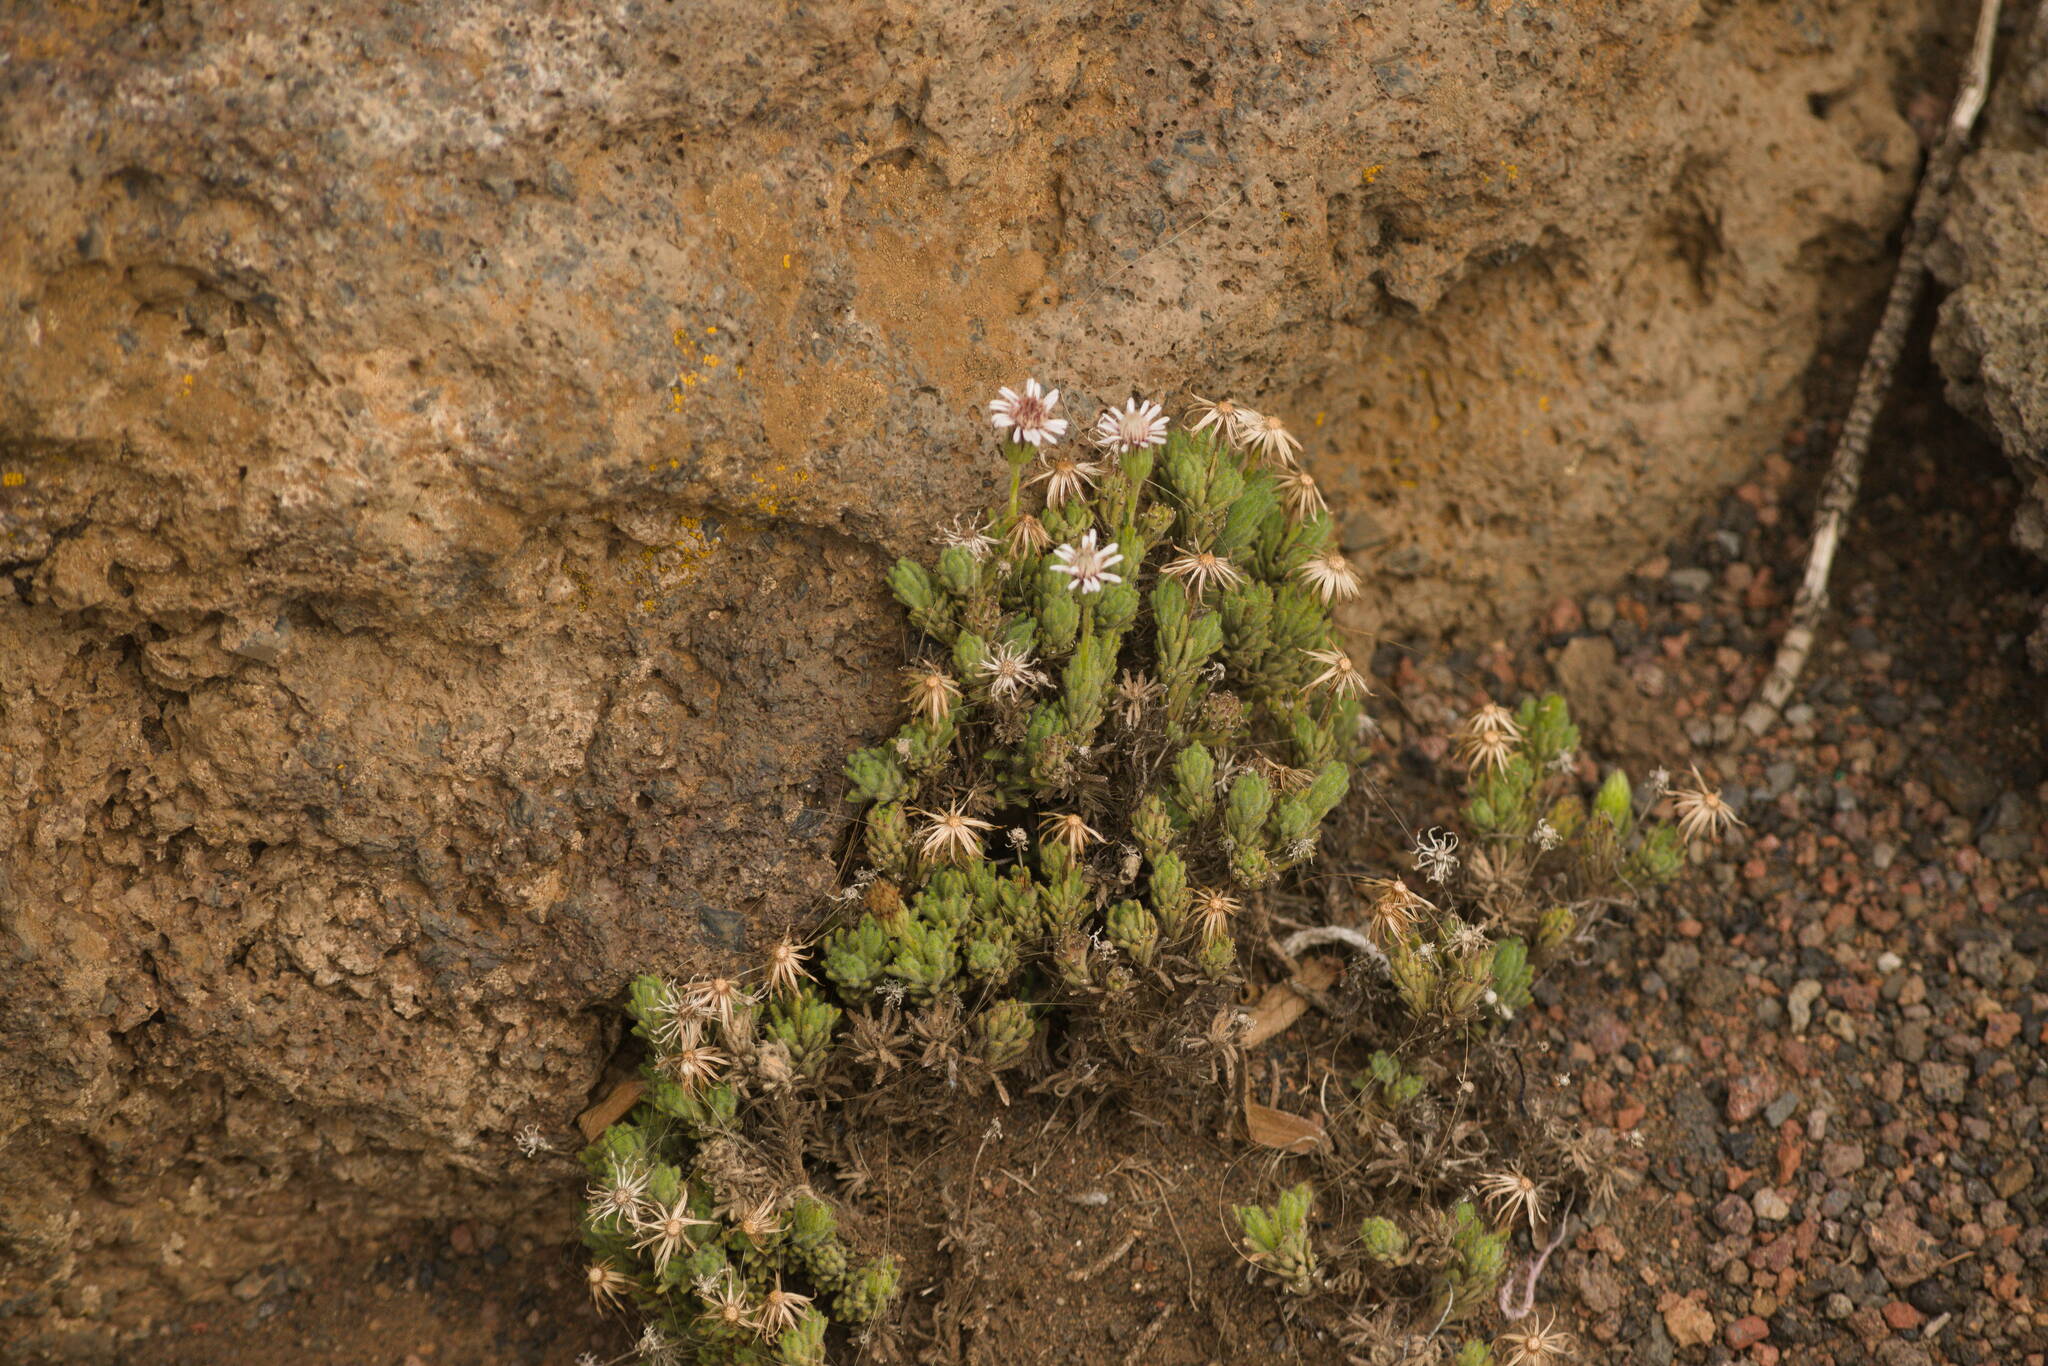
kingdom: Plantae
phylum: Tracheophyta
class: Magnoliopsida
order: Asterales
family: Asteraceae
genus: Tetramolopium
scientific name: Tetramolopium humile
